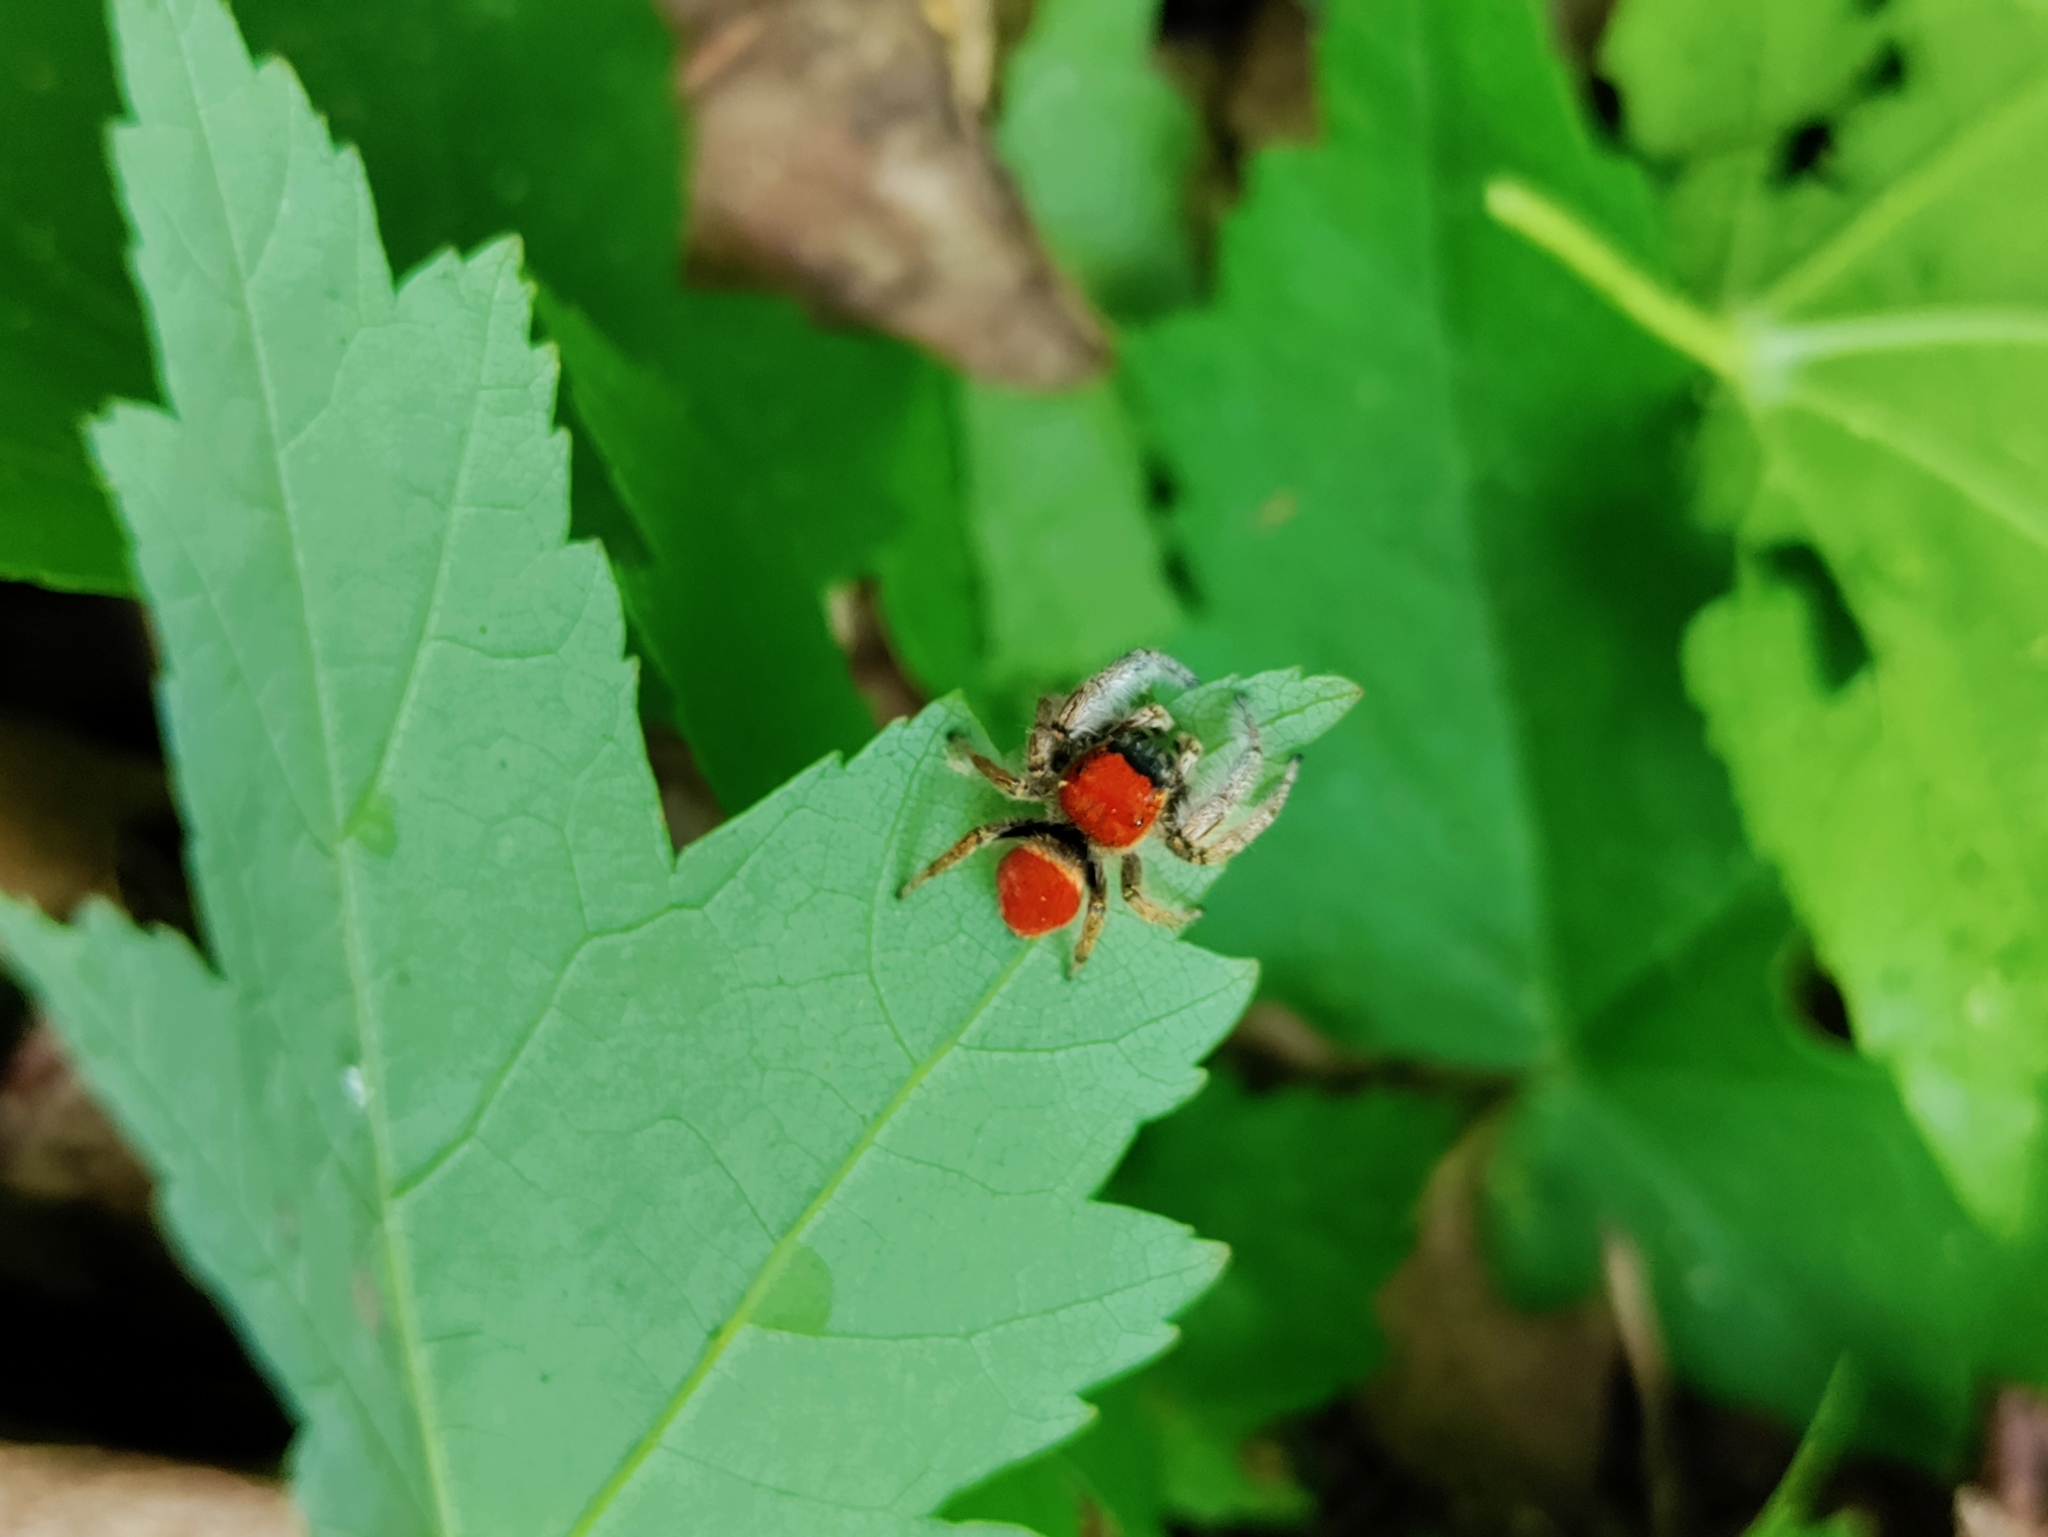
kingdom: Animalia
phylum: Arthropoda
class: Arachnida
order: Araneae
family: Salticidae
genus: Phidippus
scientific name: Phidippus whitmani
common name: Whitman's jumping spider
